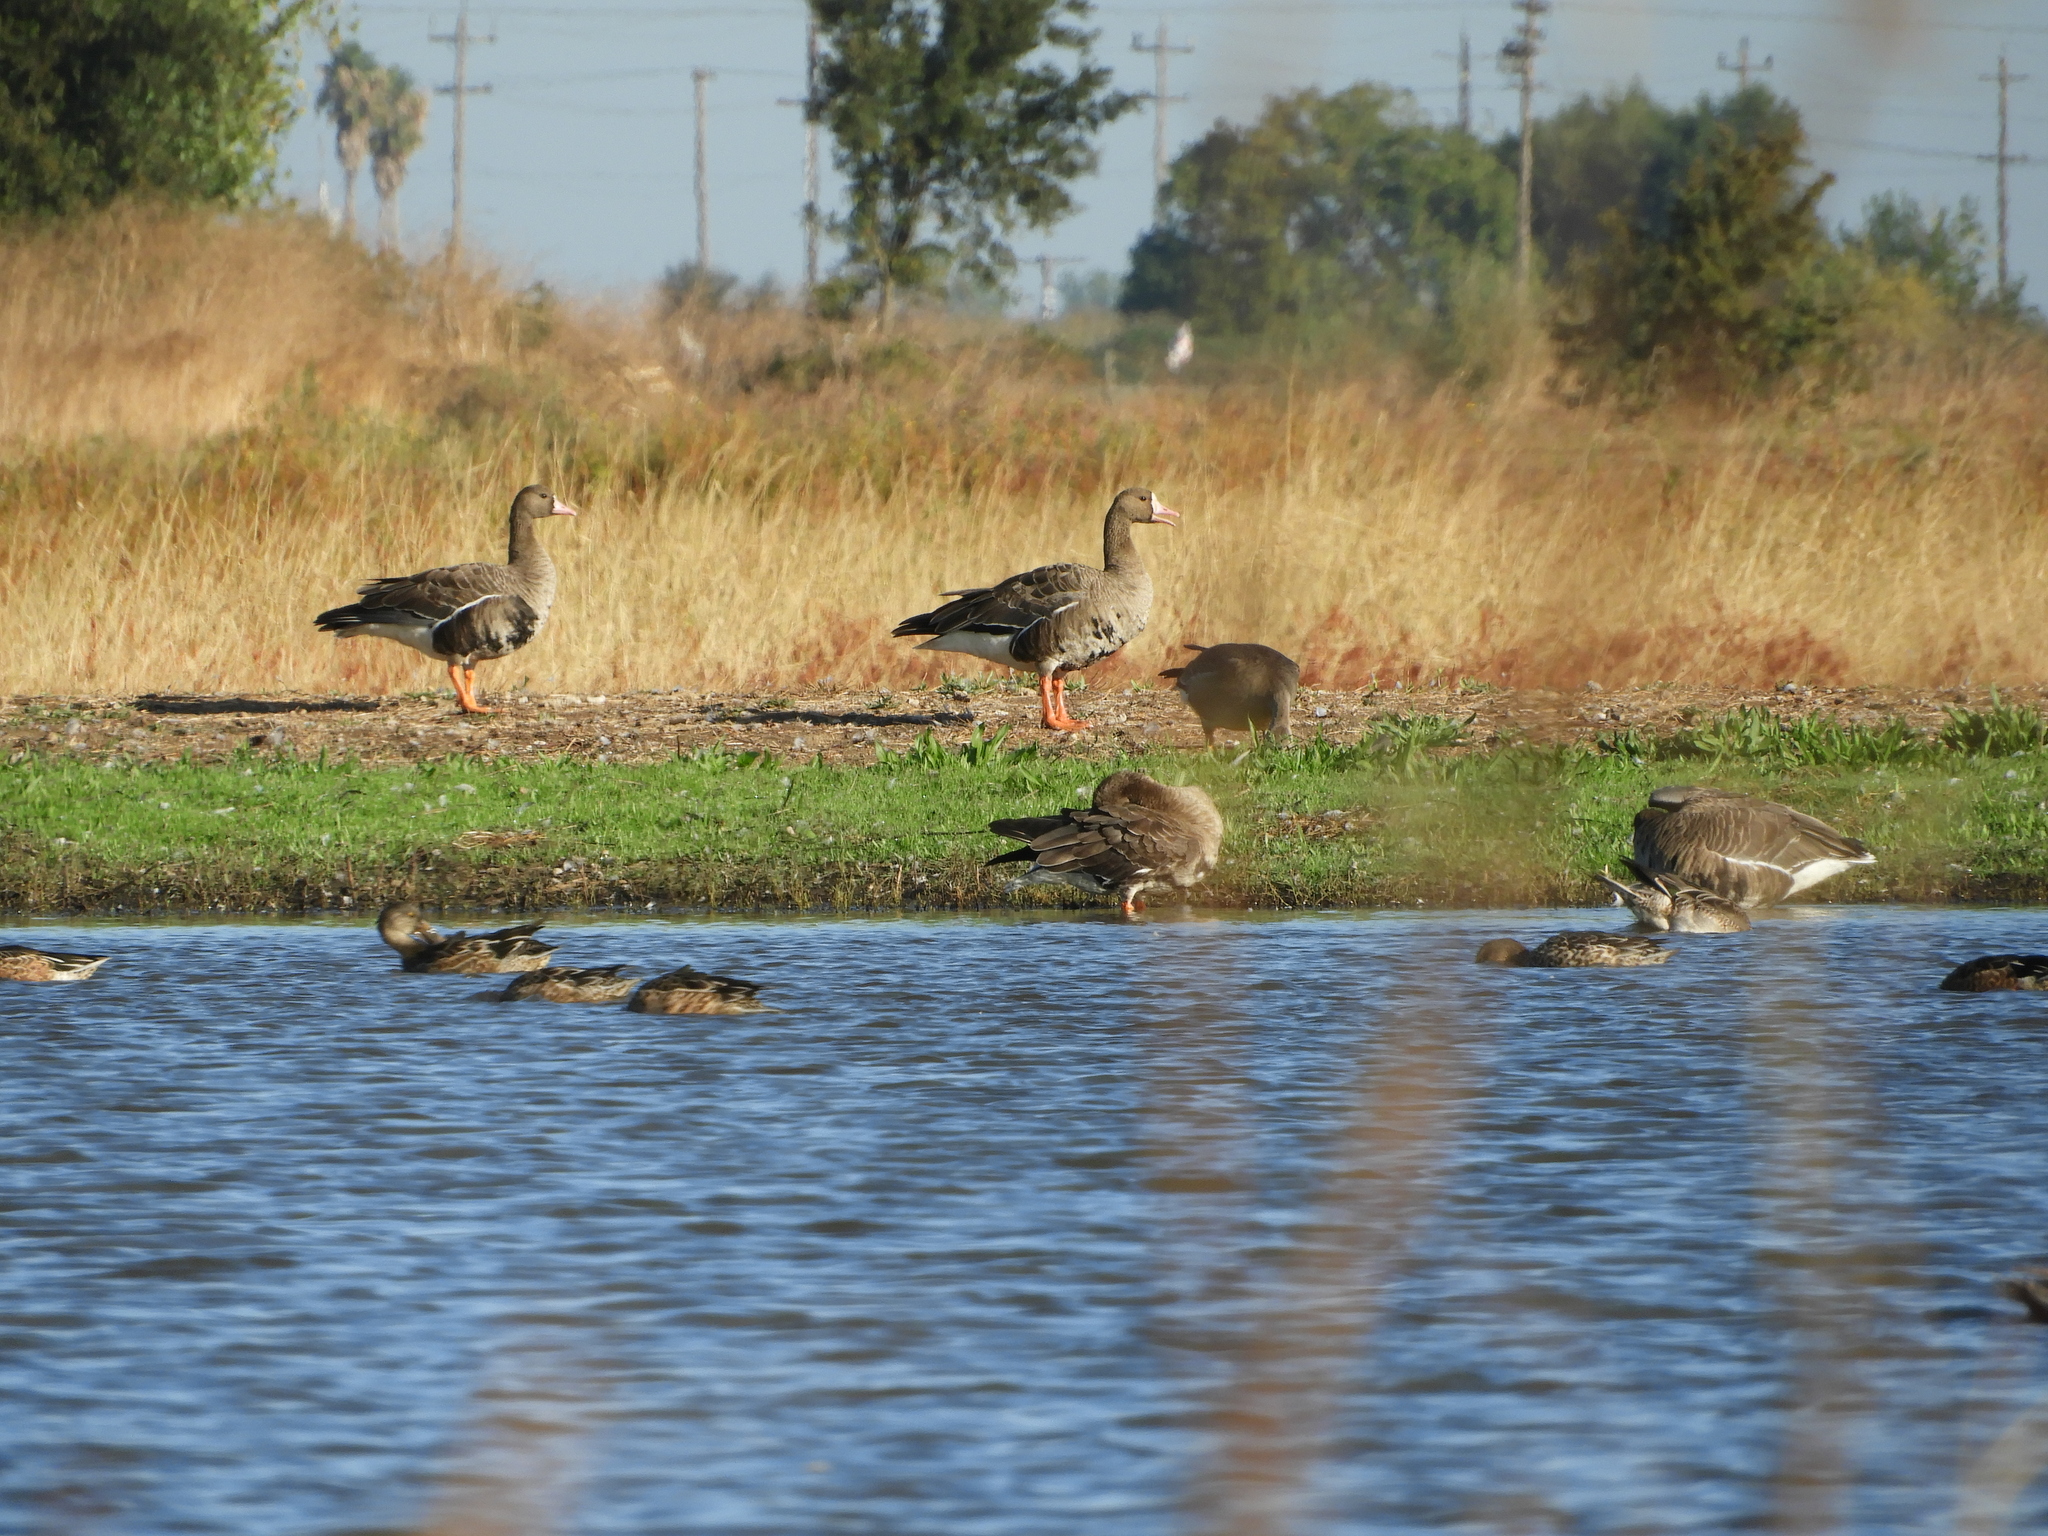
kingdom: Animalia
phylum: Chordata
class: Aves
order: Anseriformes
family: Anatidae
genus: Anser
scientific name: Anser albifrons
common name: Greater white-fronted goose
